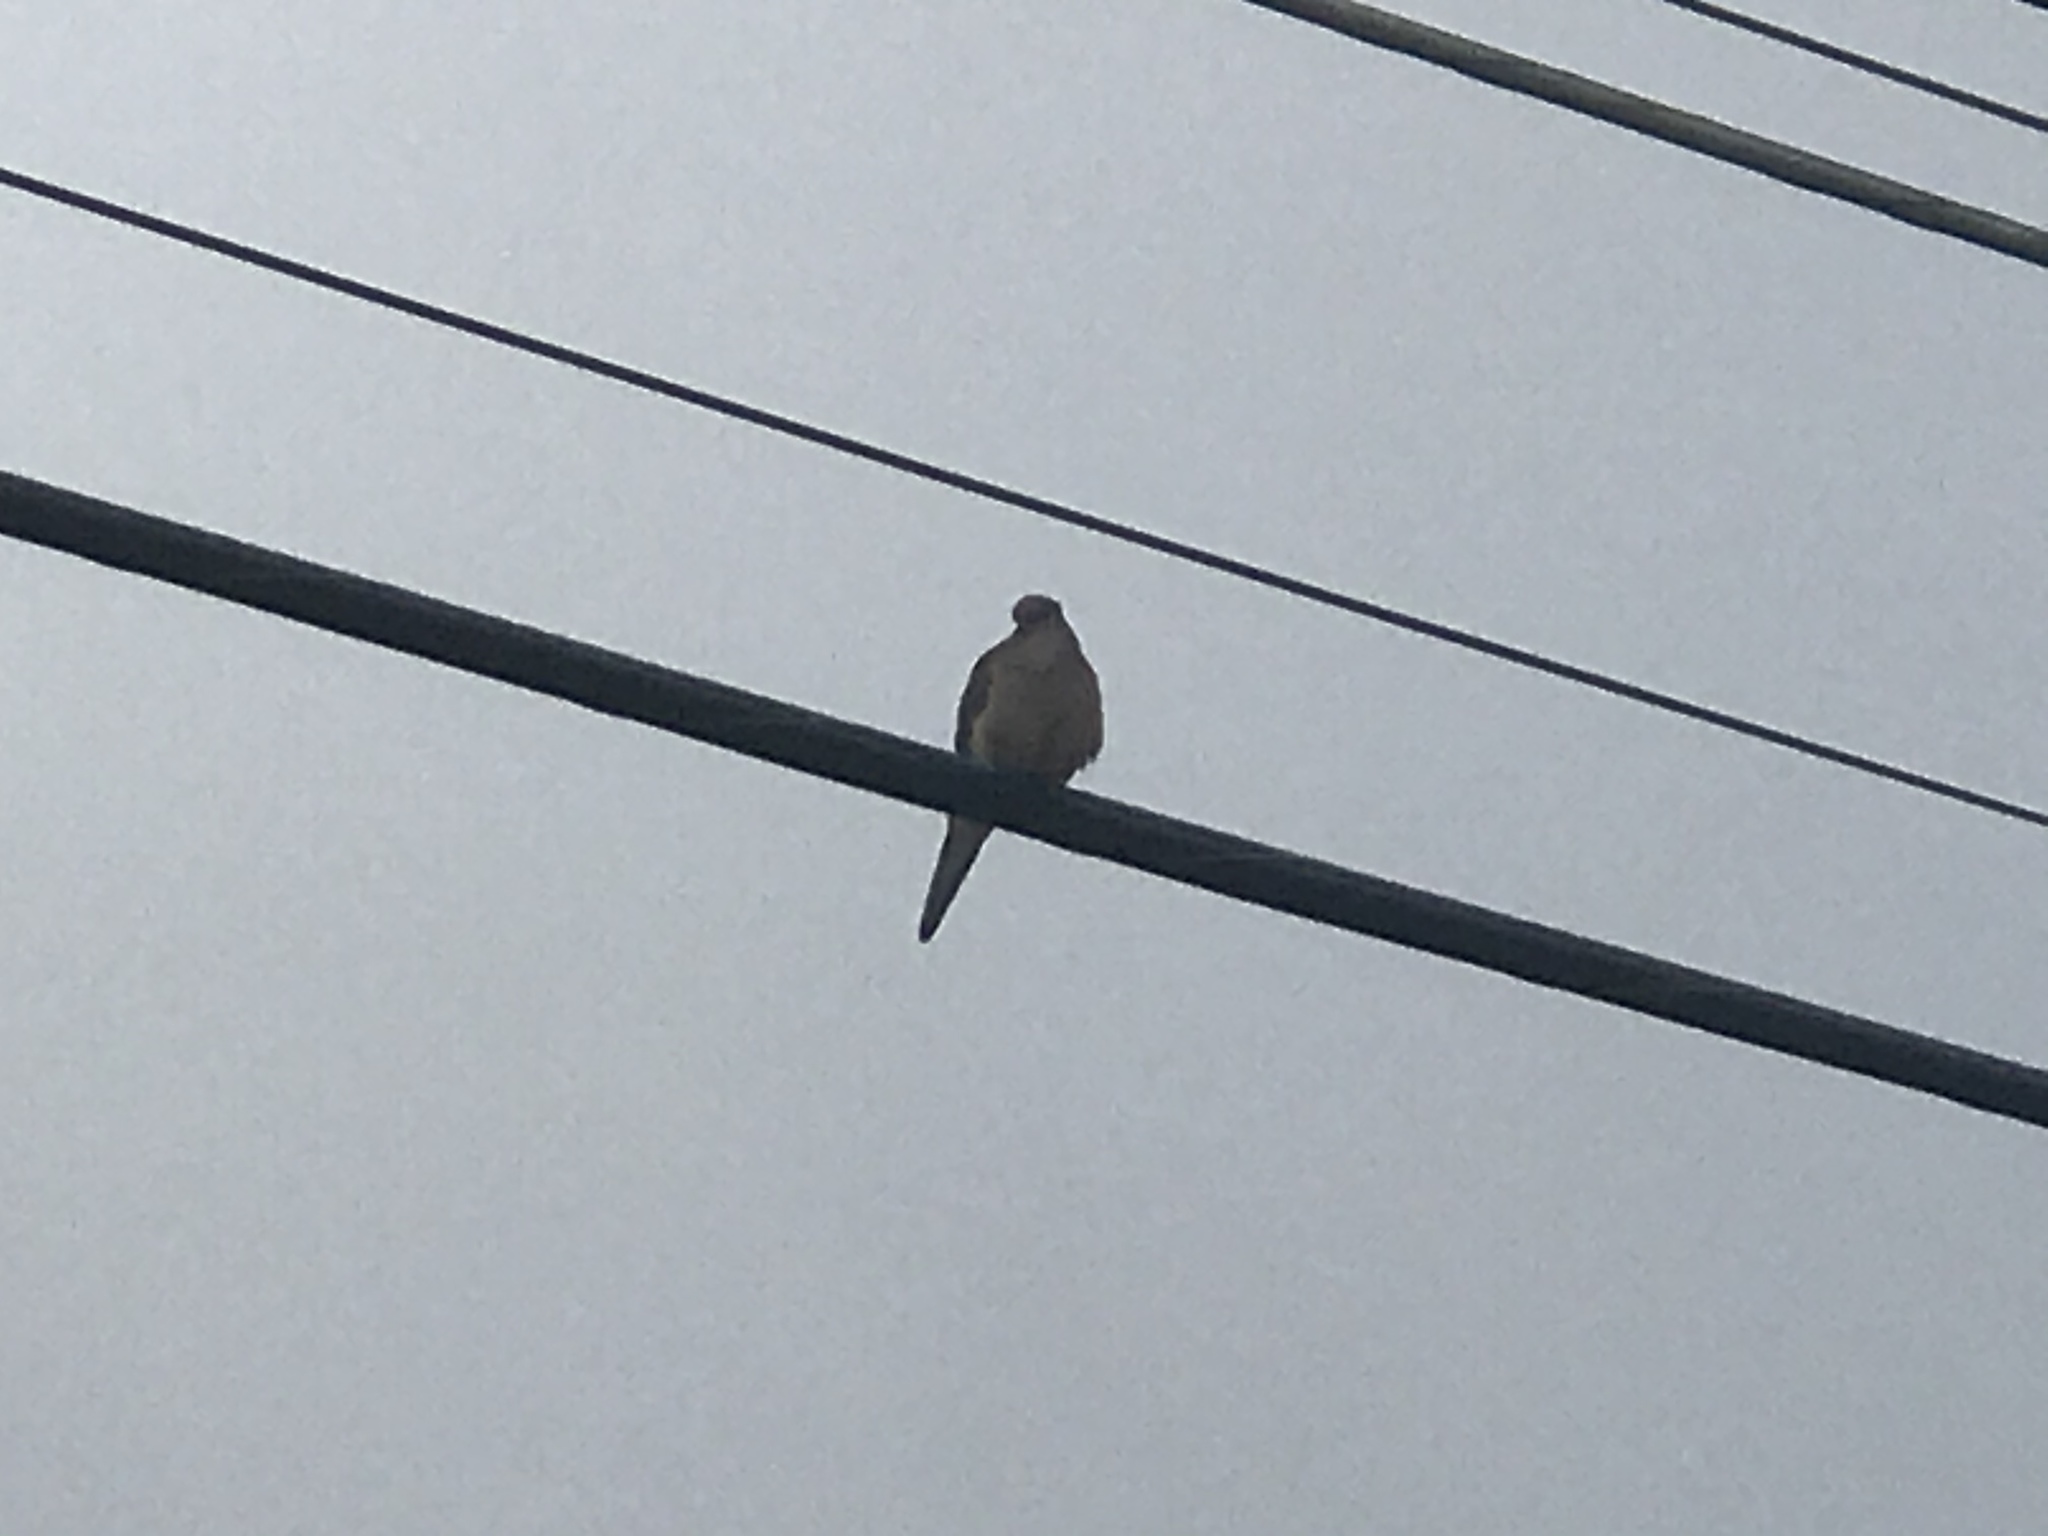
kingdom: Animalia
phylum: Chordata
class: Aves
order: Columbiformes
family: Columbidae
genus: Zenaida
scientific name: Zenaida macroura
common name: Mourning dove
